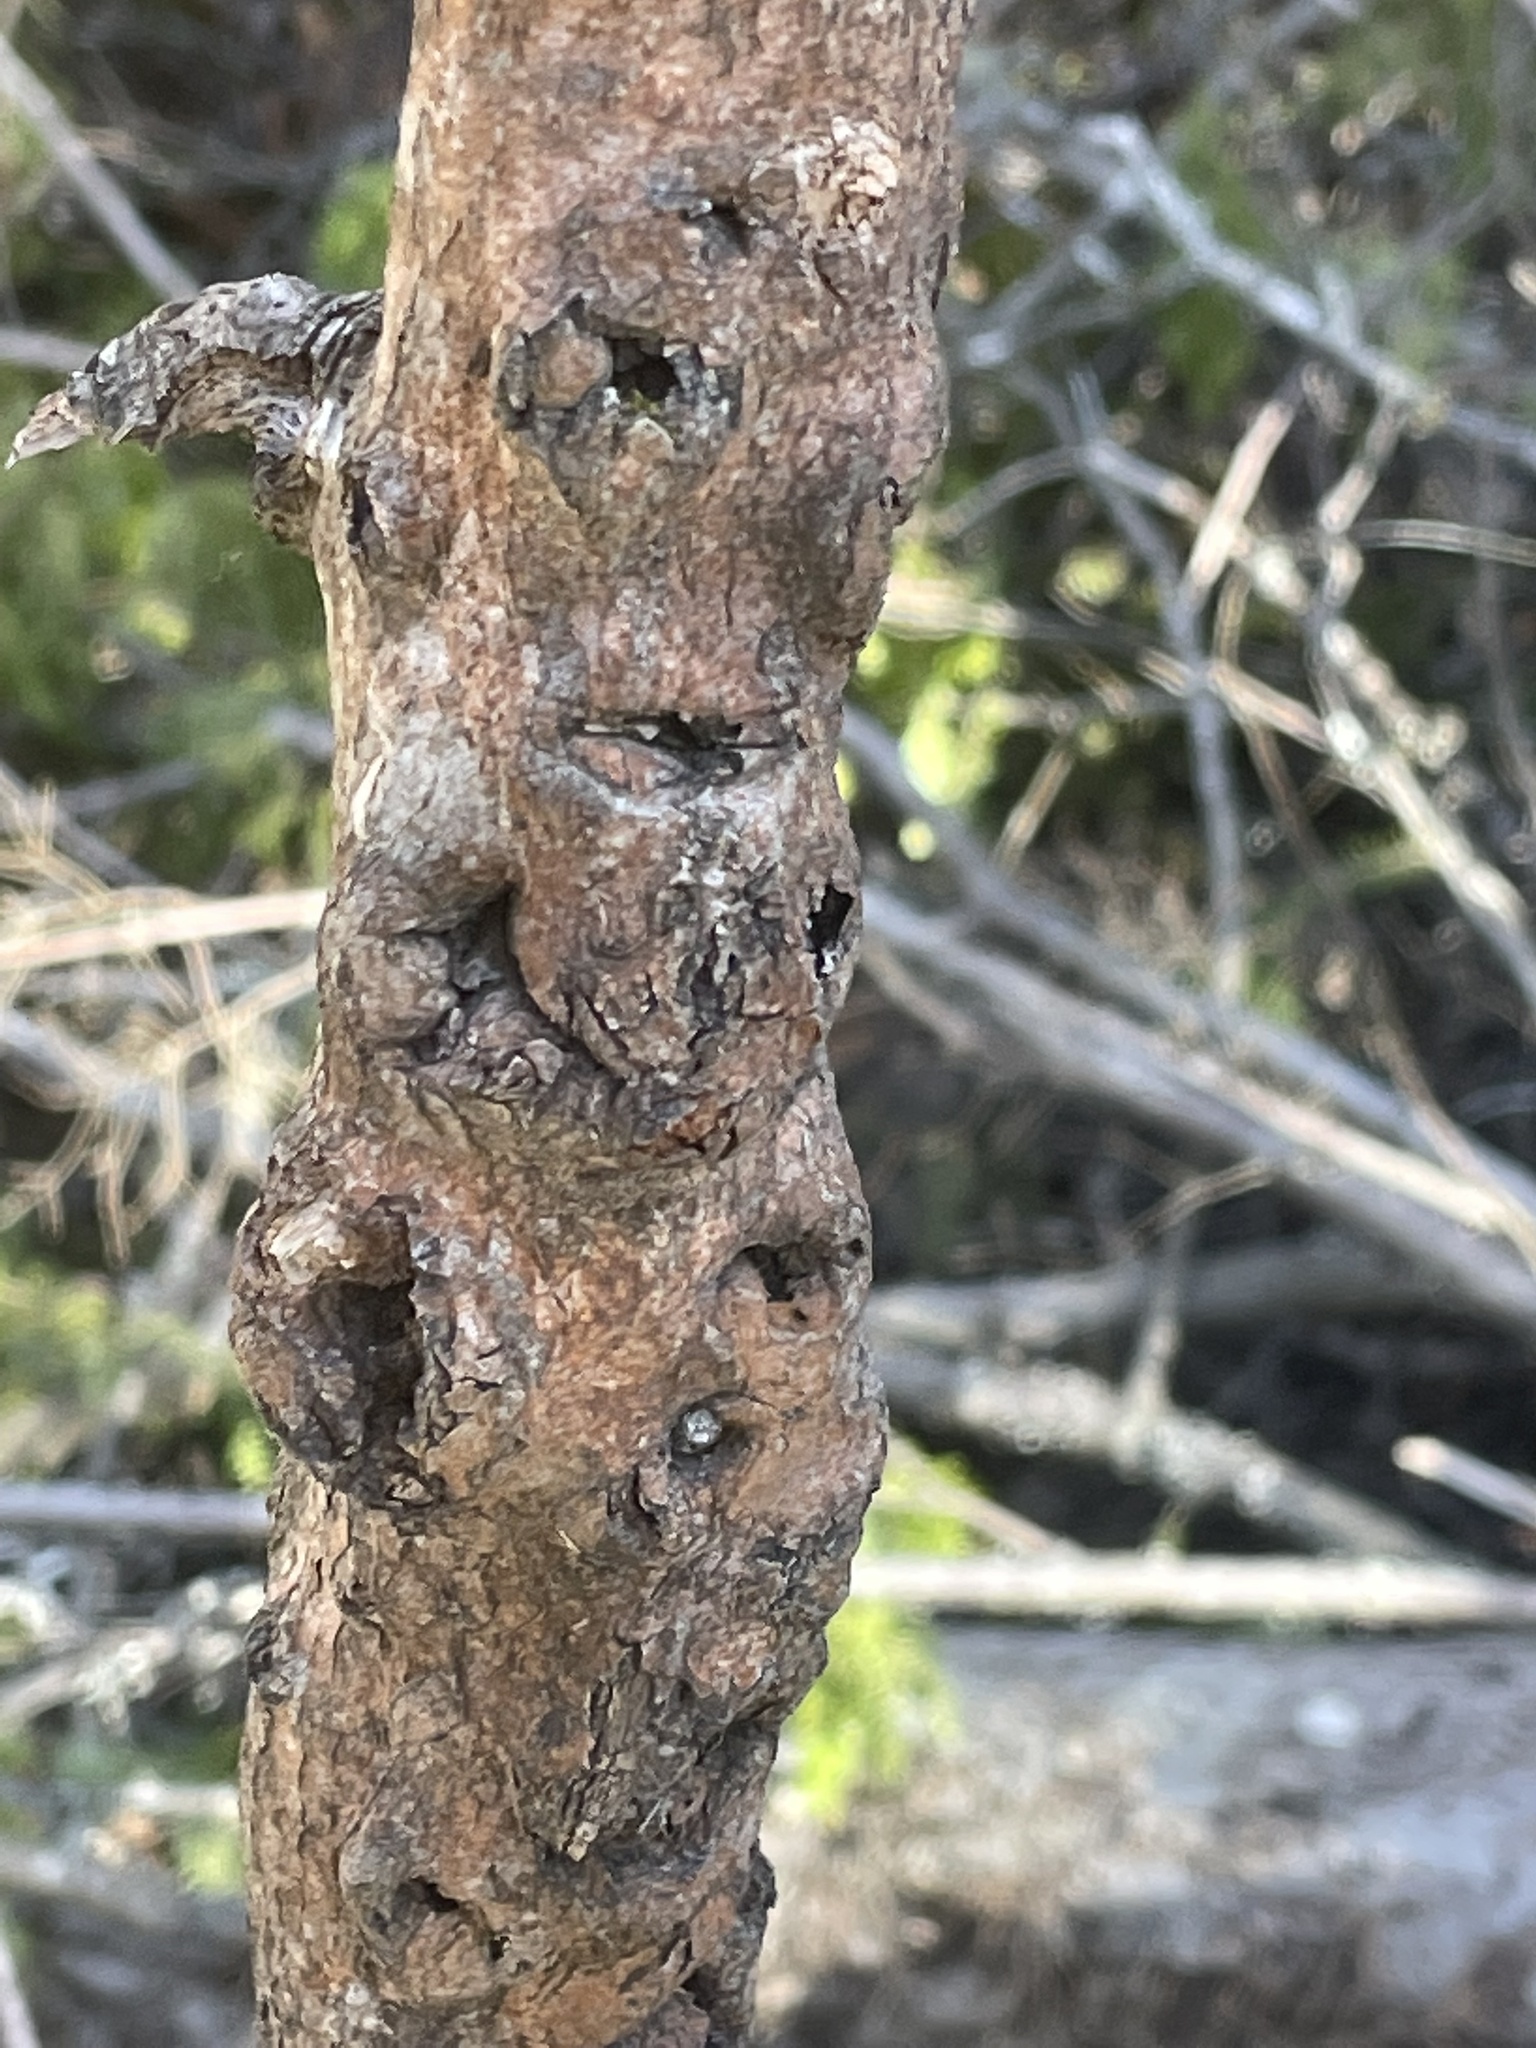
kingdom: Fungi
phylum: Ascomycota
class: Sordariomycetes
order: Hypocreales
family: Nectriaceae
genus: Neonectria
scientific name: Neonectria faginata
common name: Beech bark canker
